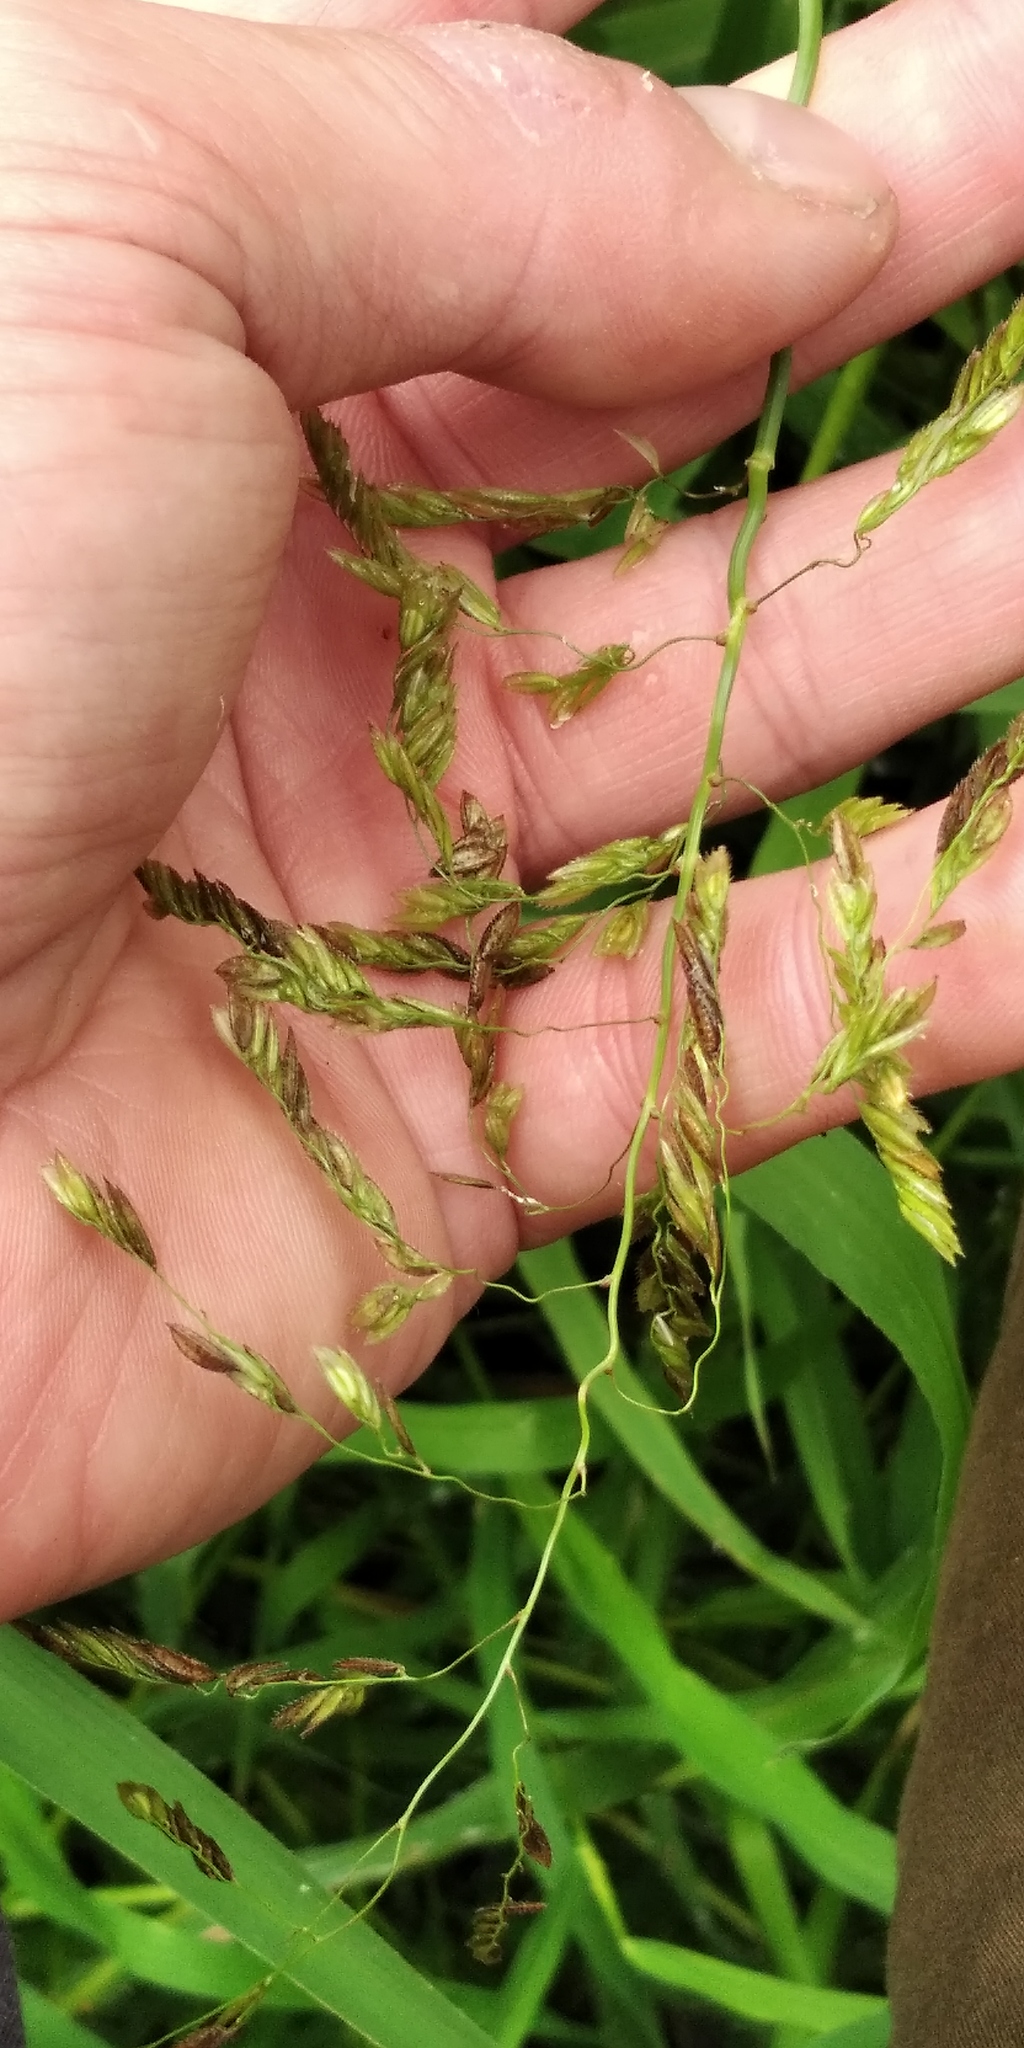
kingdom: Plantae
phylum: Tracheophyta
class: Liliopsida
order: Poales
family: Poaceae
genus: Leersia
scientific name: Leersia oryzoides
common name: Cut-grass
